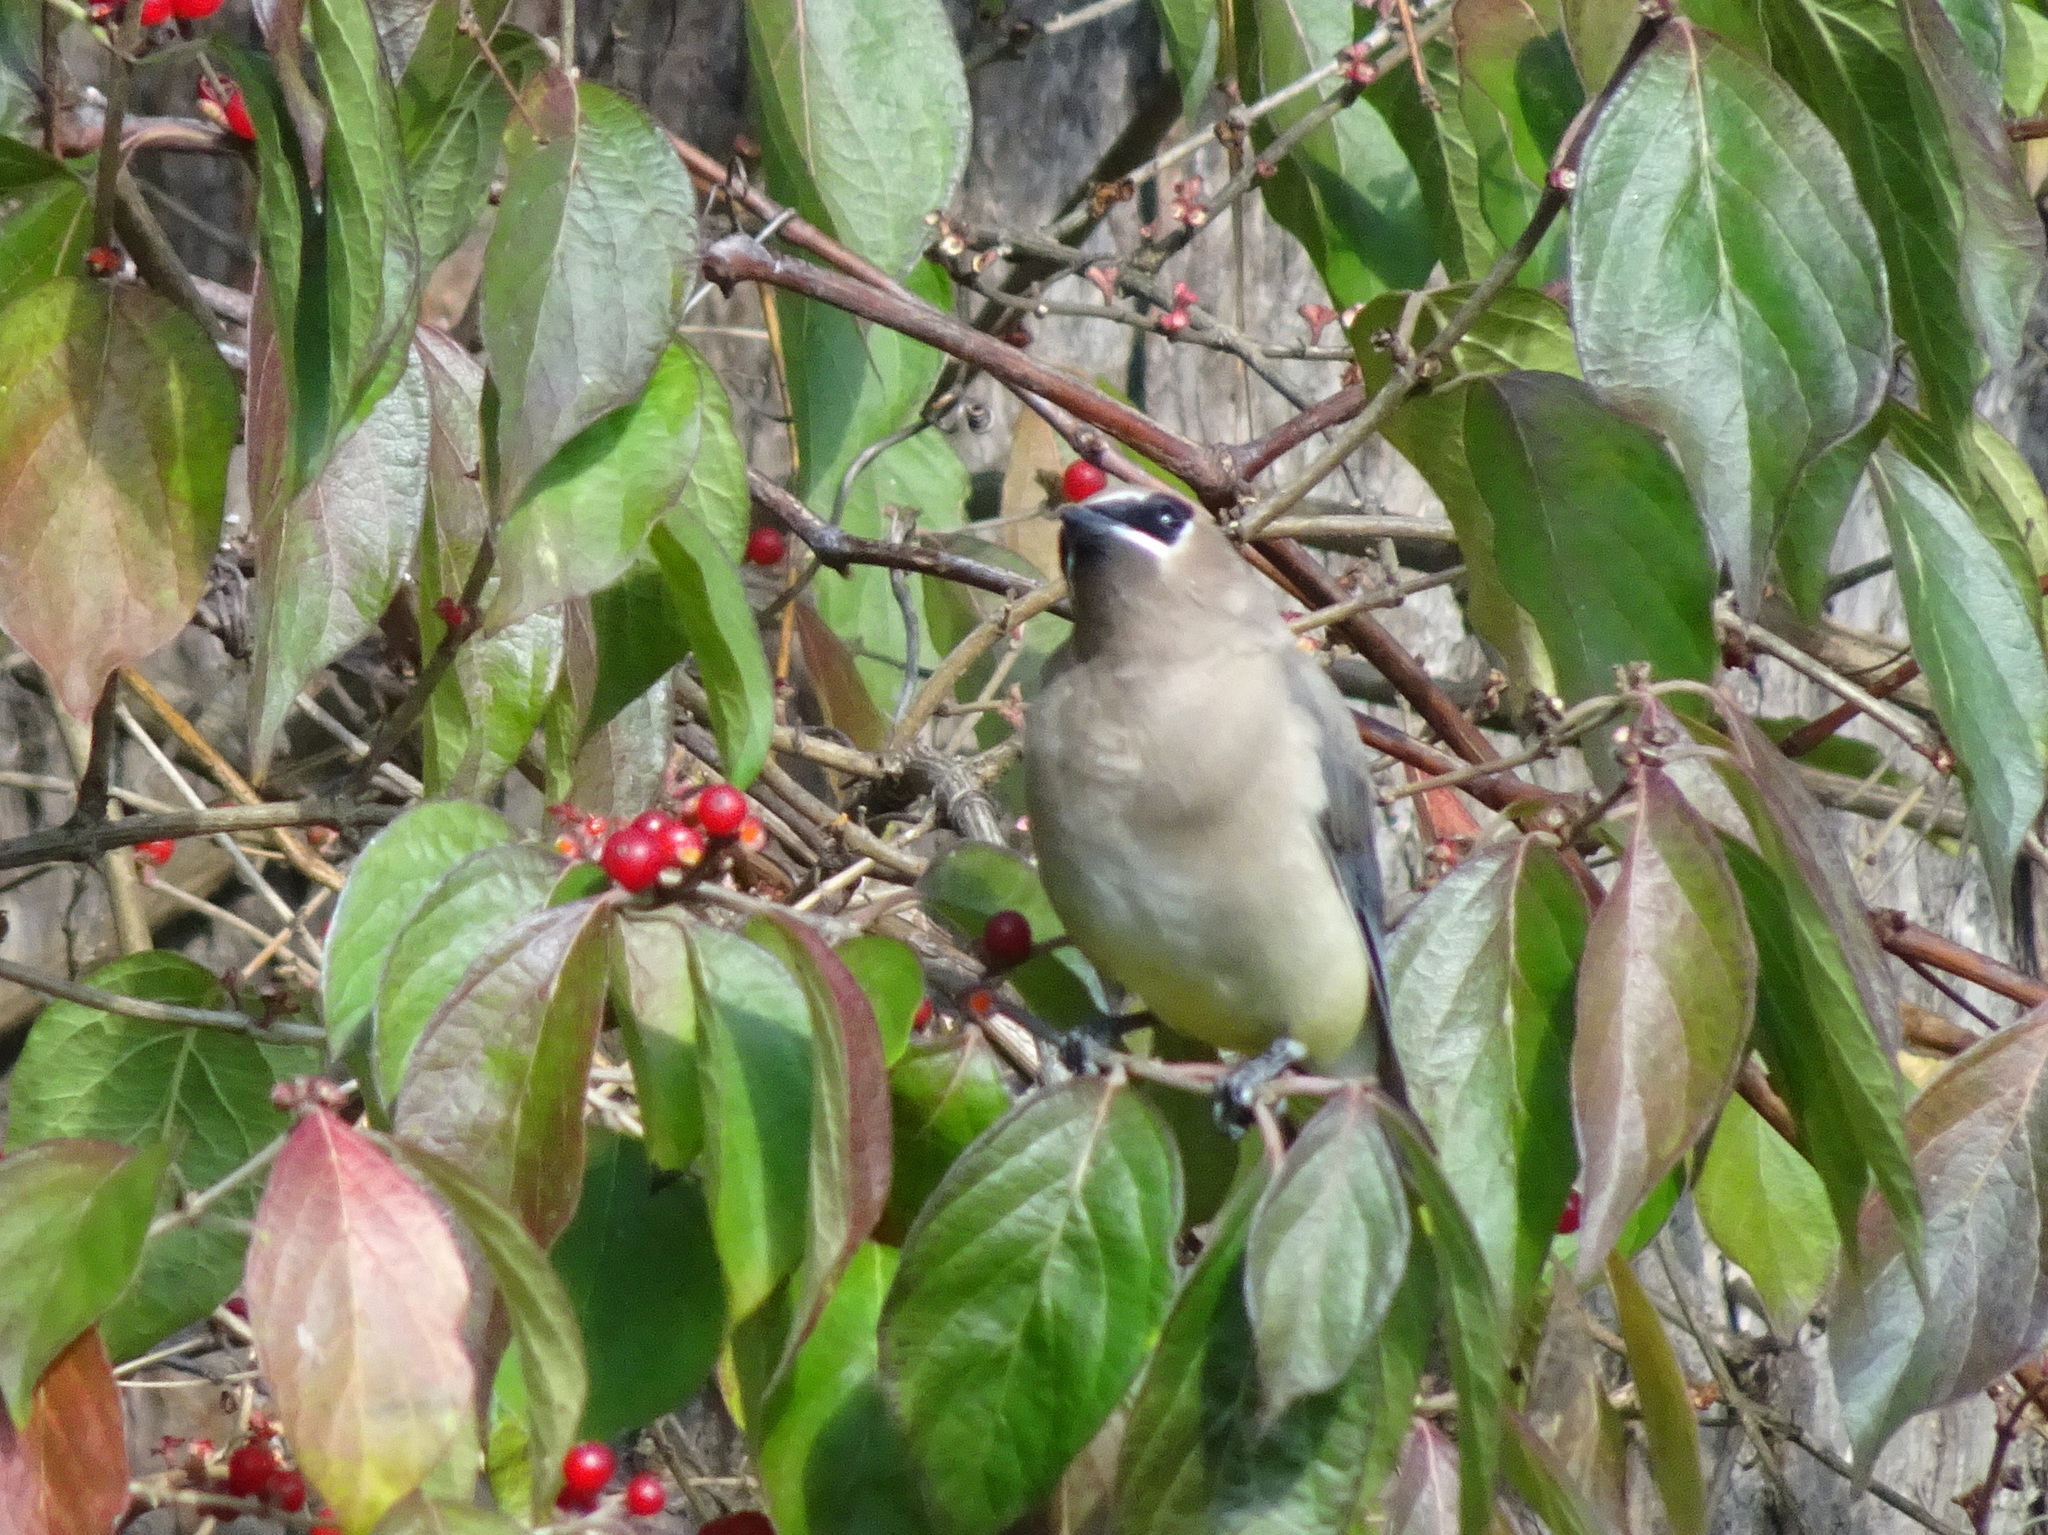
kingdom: Animalia
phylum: Chordata
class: Aves
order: Passeriformes
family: Bombycillidae
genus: Bombycilla
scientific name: Bombycilla cedrorum
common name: Cedar waxwing
